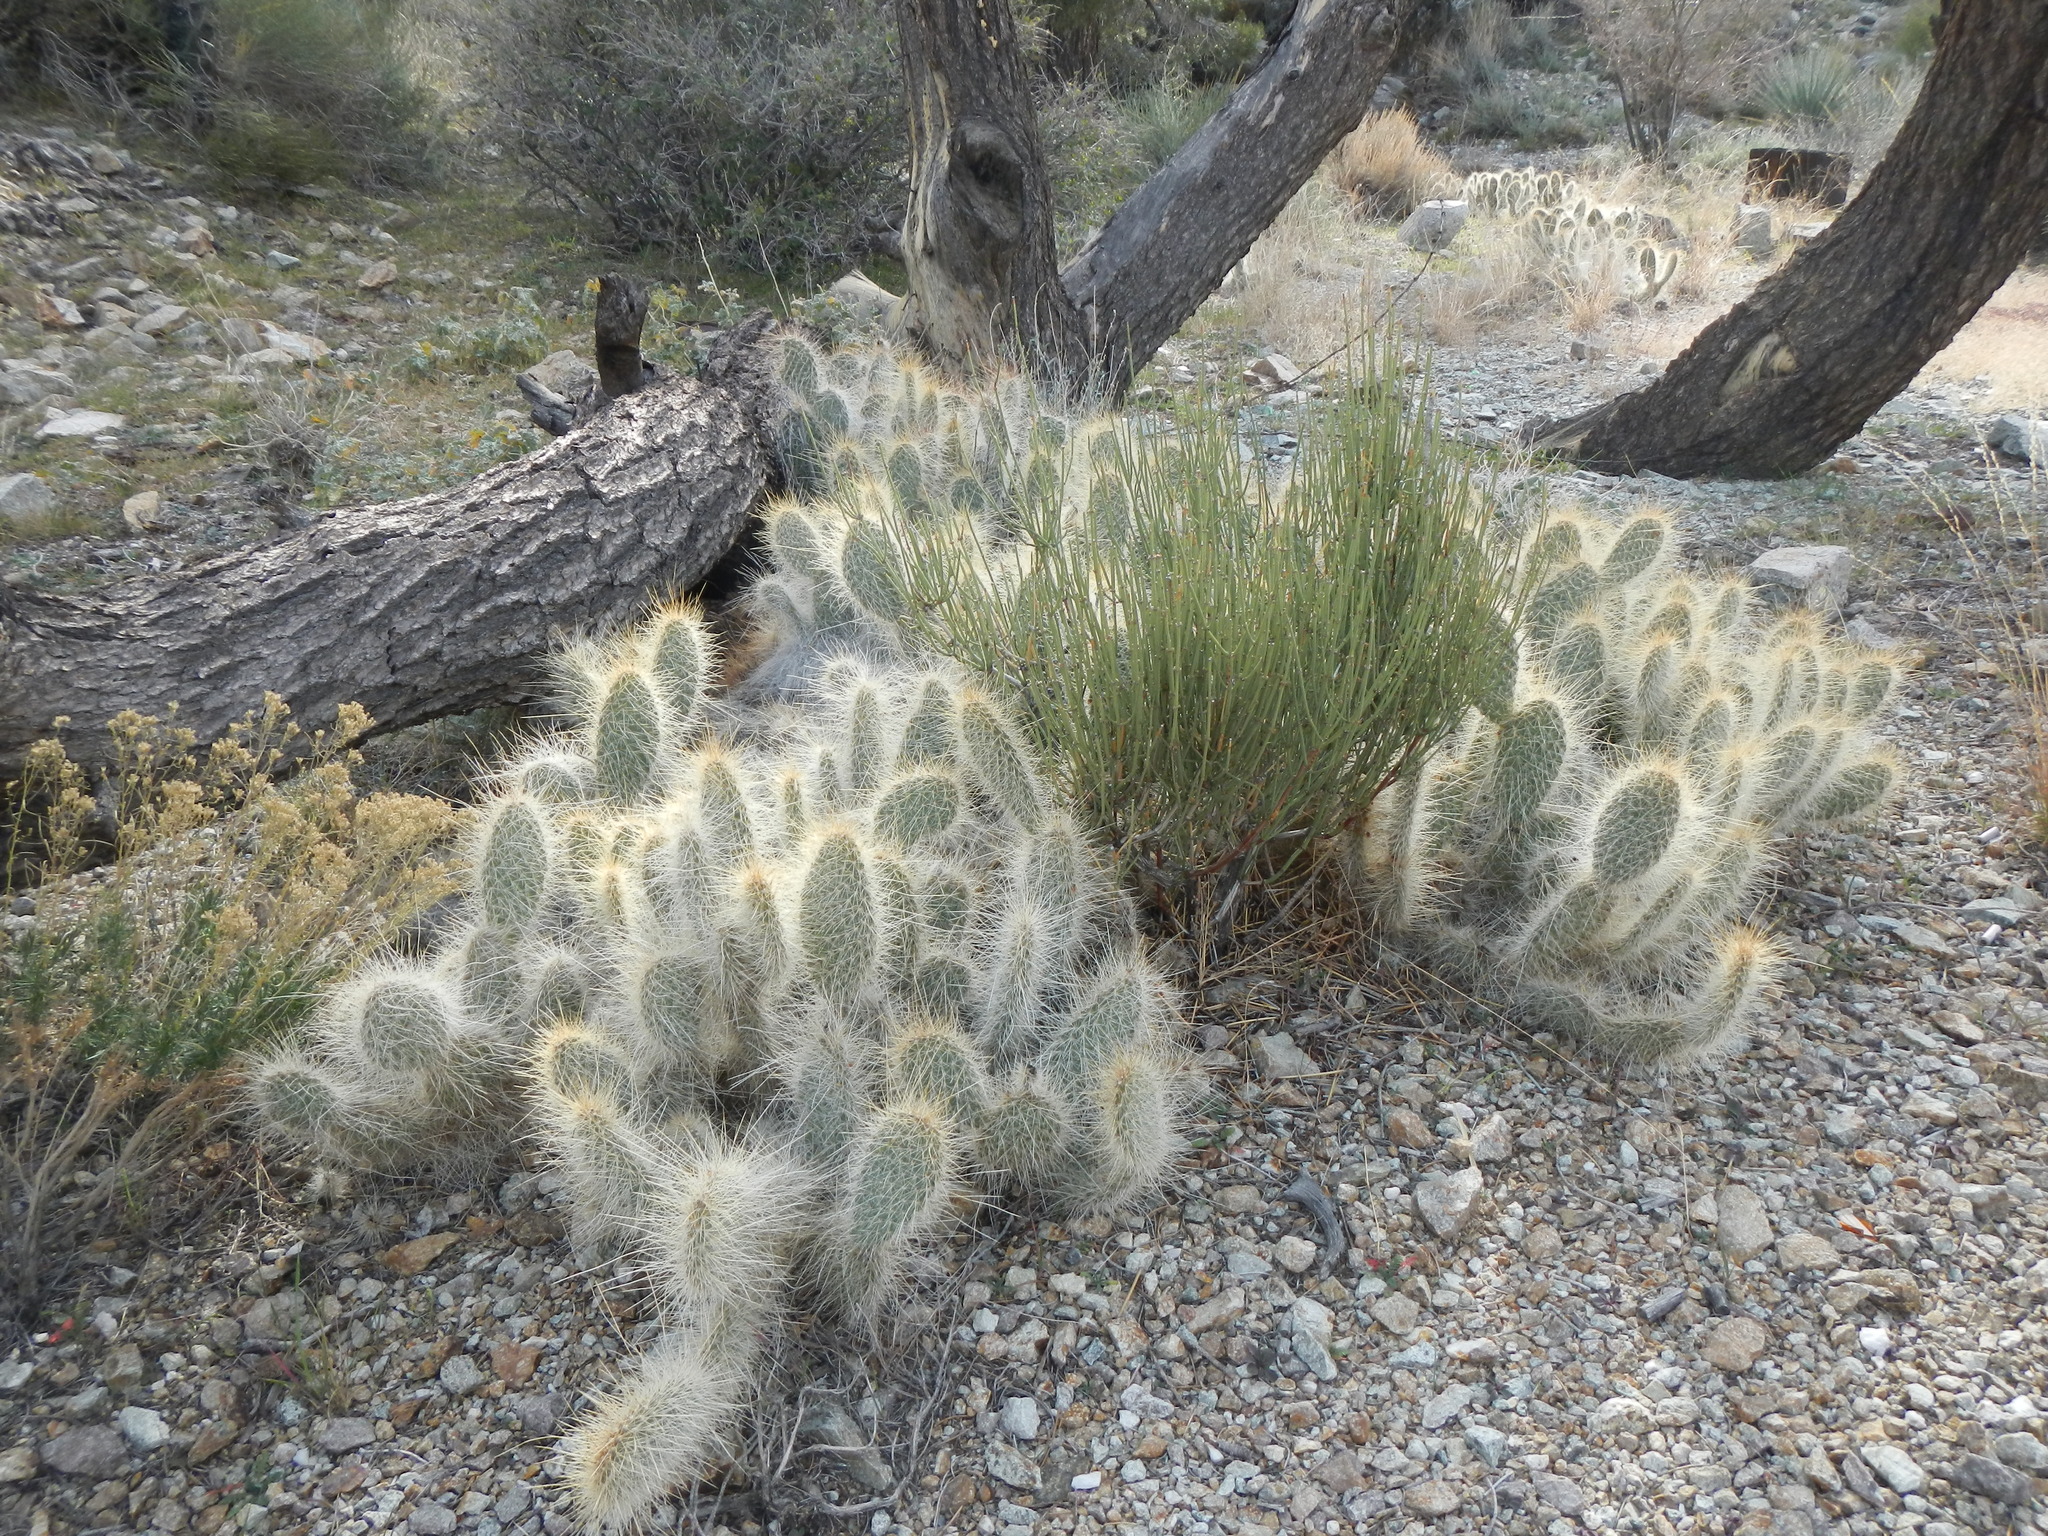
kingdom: Plantae
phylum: Tracheophyta
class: Magnoliopsida
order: Caryophyllales
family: Cactaceae
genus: Opuntia
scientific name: Opuntia polyacantha
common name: Plains prickly-pear
